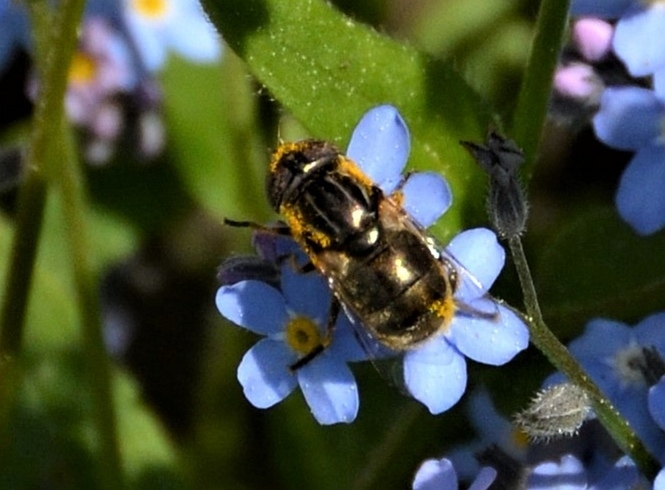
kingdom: Animalia
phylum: Arthropoda
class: Insecta
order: Diptera
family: Syrphidae
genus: Eristalinus
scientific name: Eristalinus aeneus
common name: Syrphid fly
